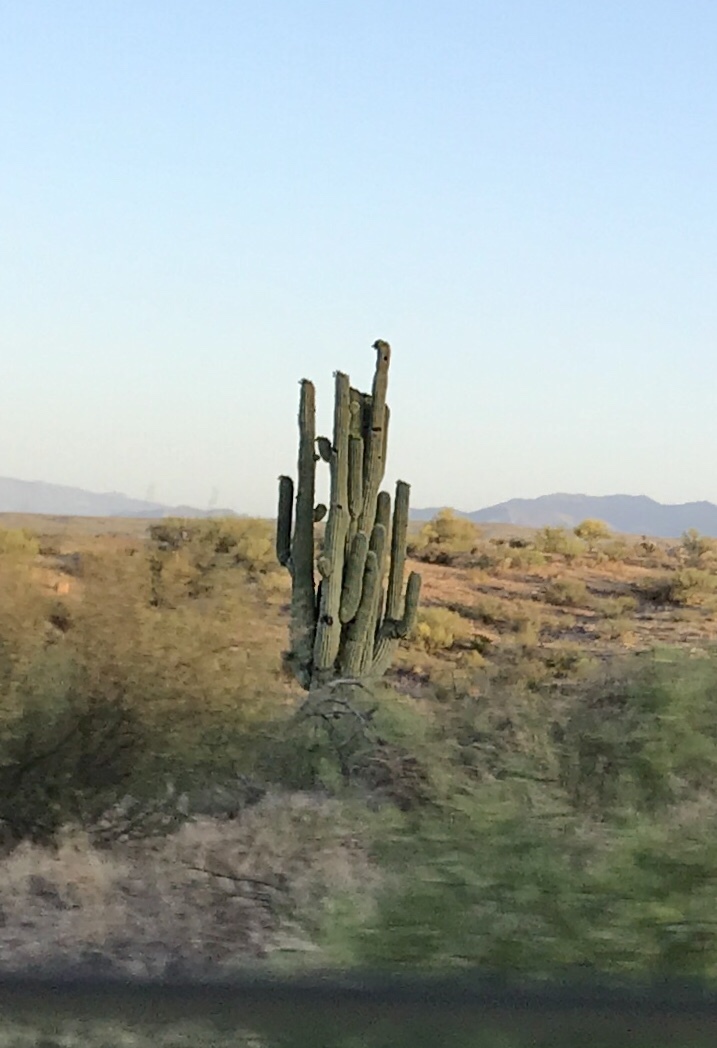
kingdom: Plantae
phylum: Tracheophyta
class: Magnoliopsida
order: Caryophyllales
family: Cactaceae
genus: Carnegiea
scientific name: Carnegiea gigantea
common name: Saguaro
